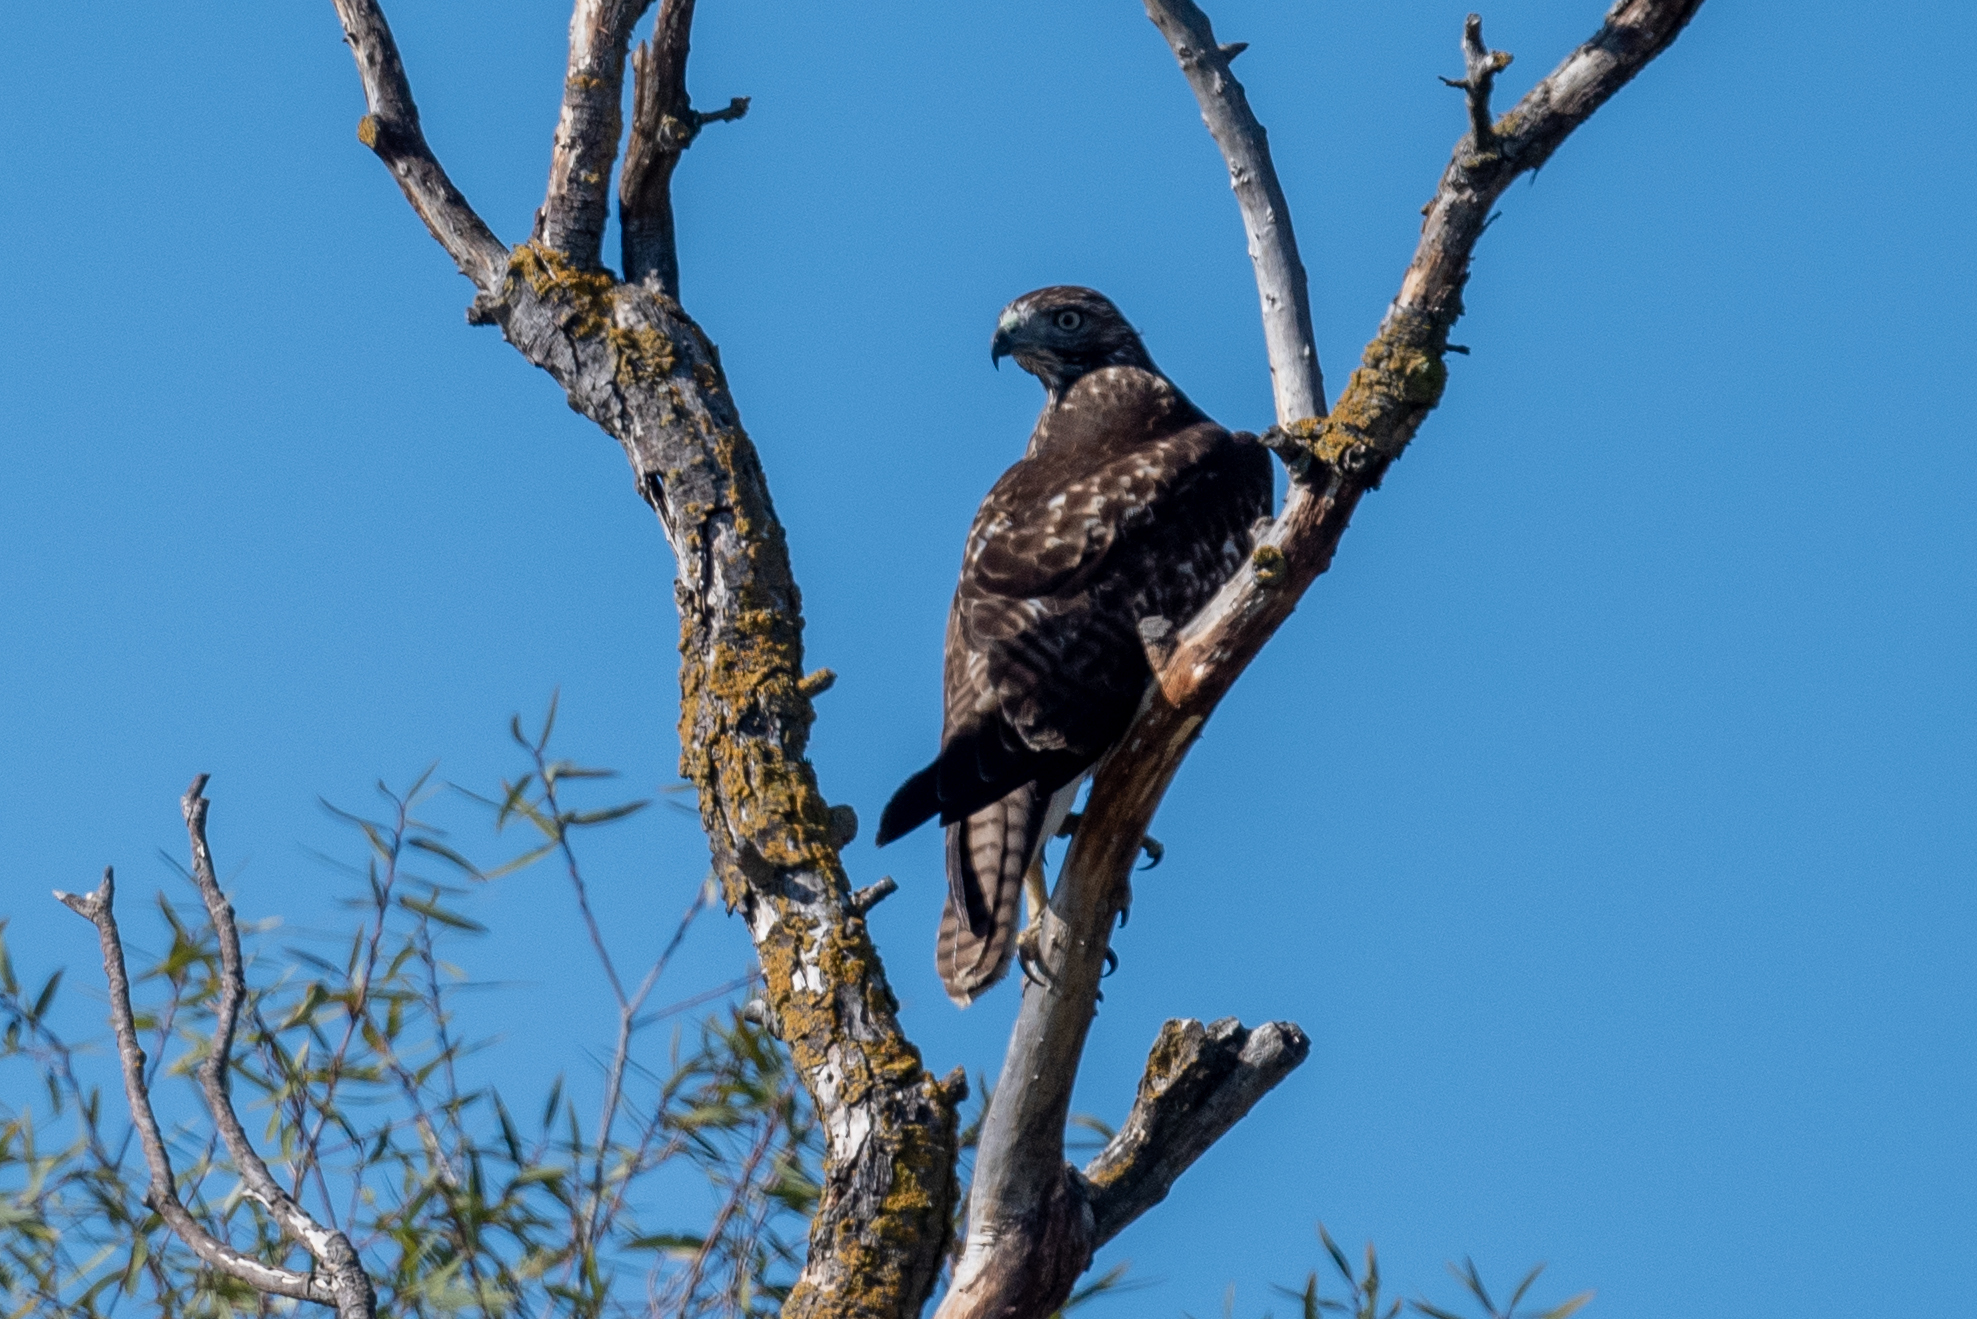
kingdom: Animalia
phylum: Chordata
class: Aves
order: Accipitriformes
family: Accipitridae
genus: Buteo
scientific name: Buteo jamaicensis
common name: Red-tailed hawk
